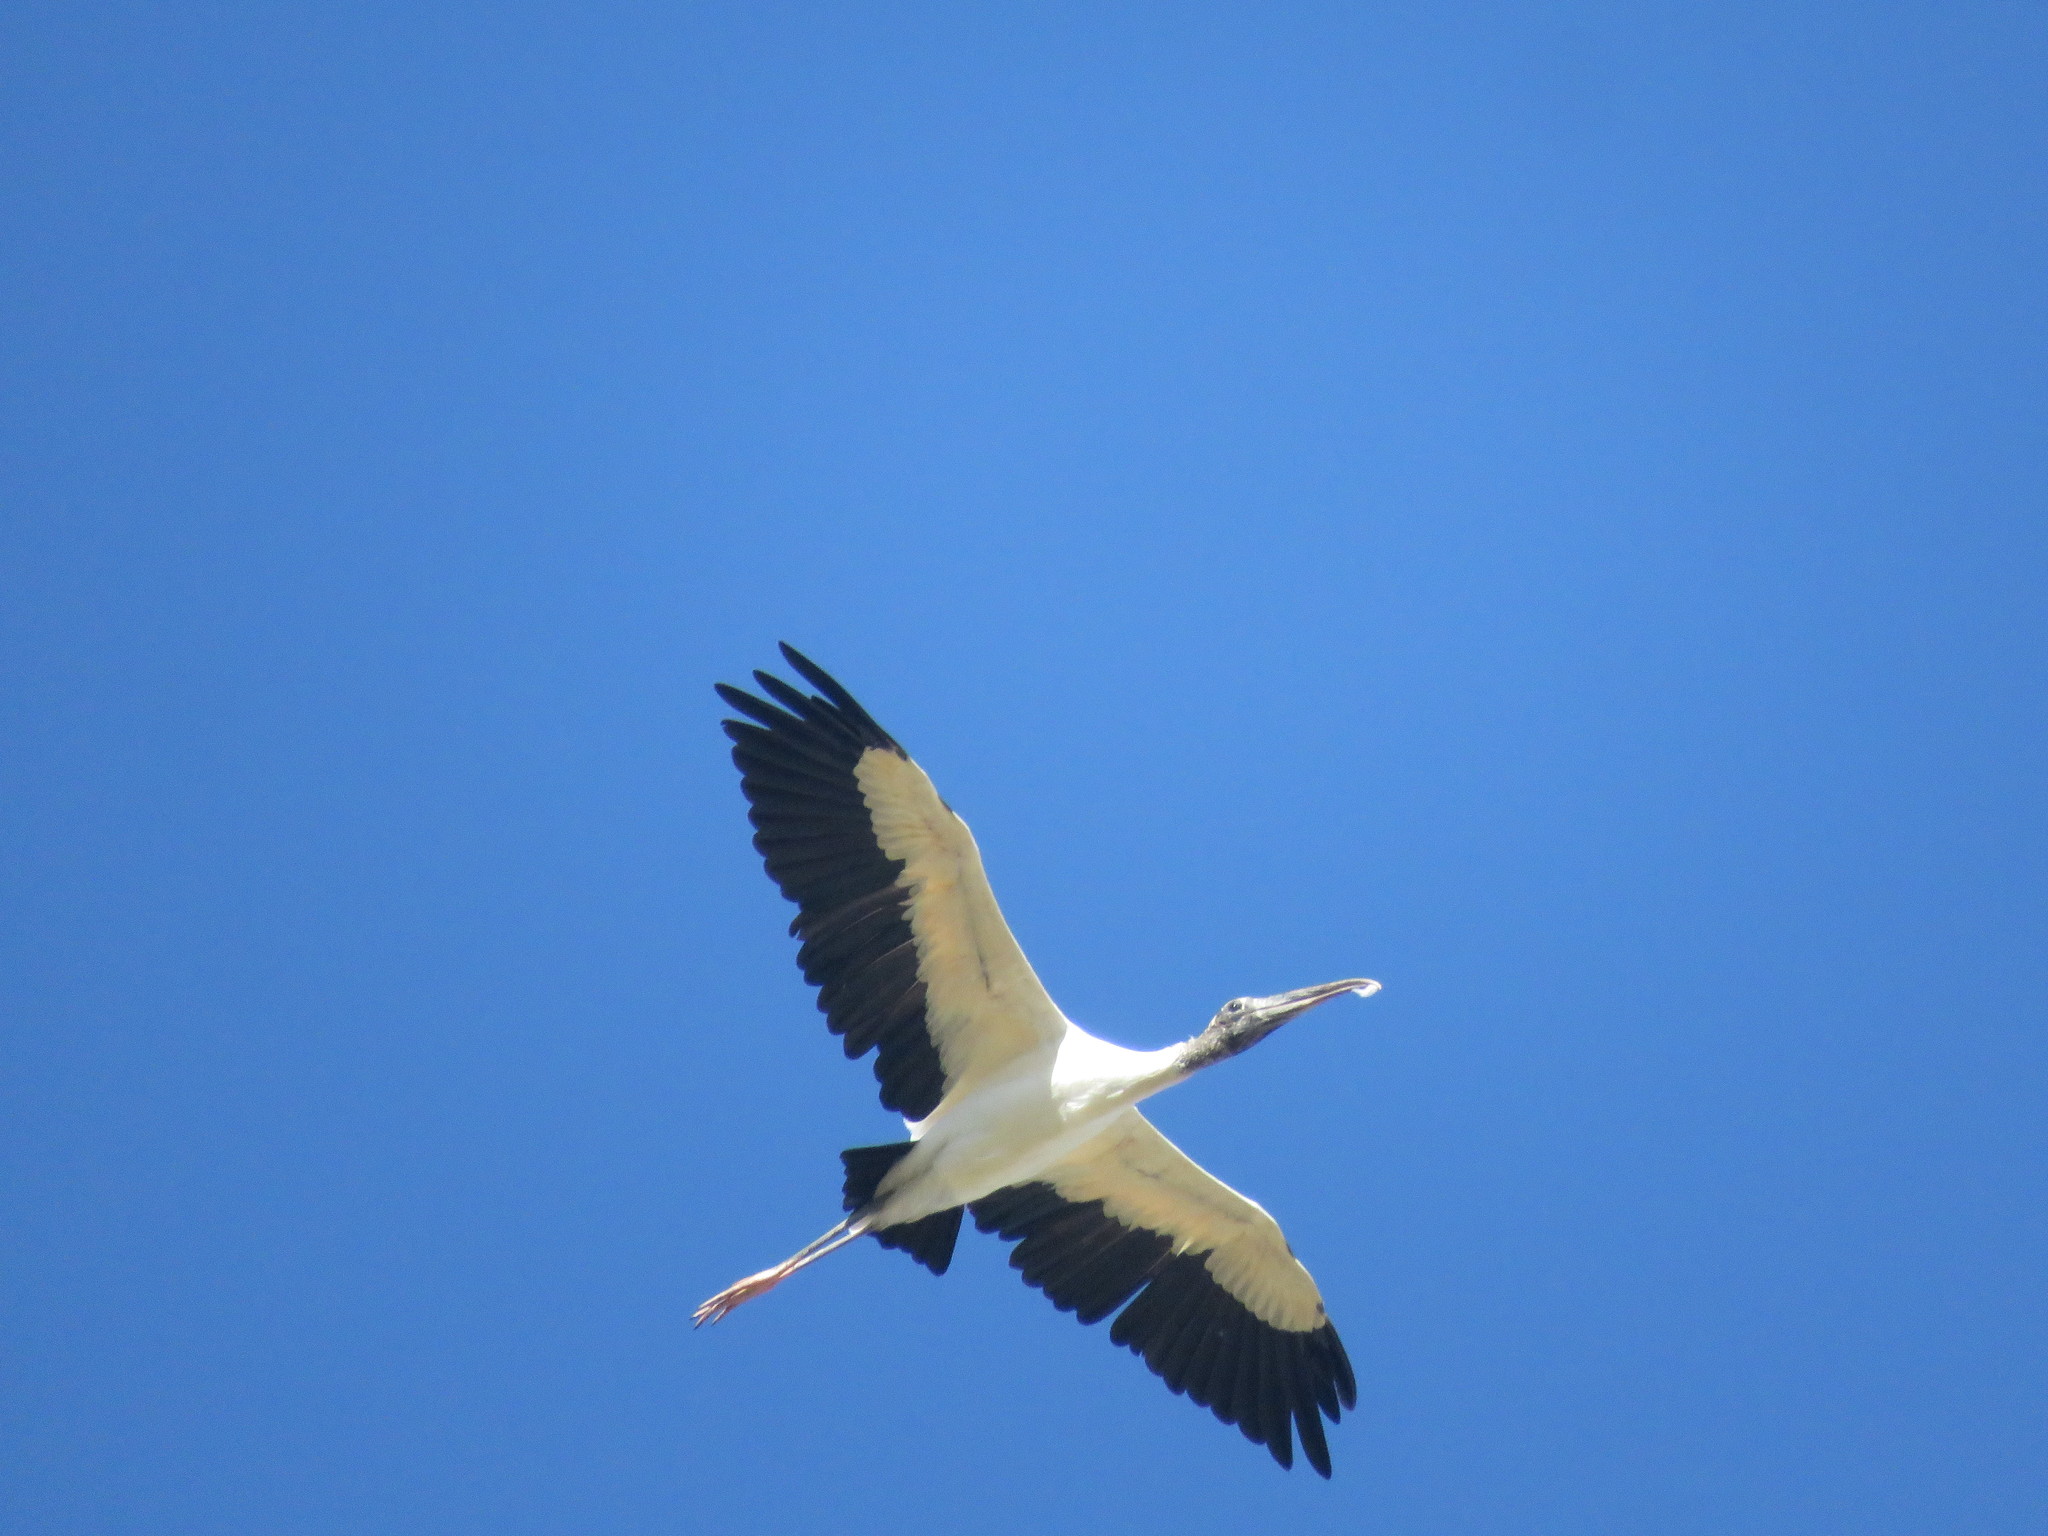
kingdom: Animalia
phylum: Chordata
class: Aves
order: Ciconiiformes
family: Ciconiidae
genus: Mycteria
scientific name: Mycteria americana
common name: Wood stork
